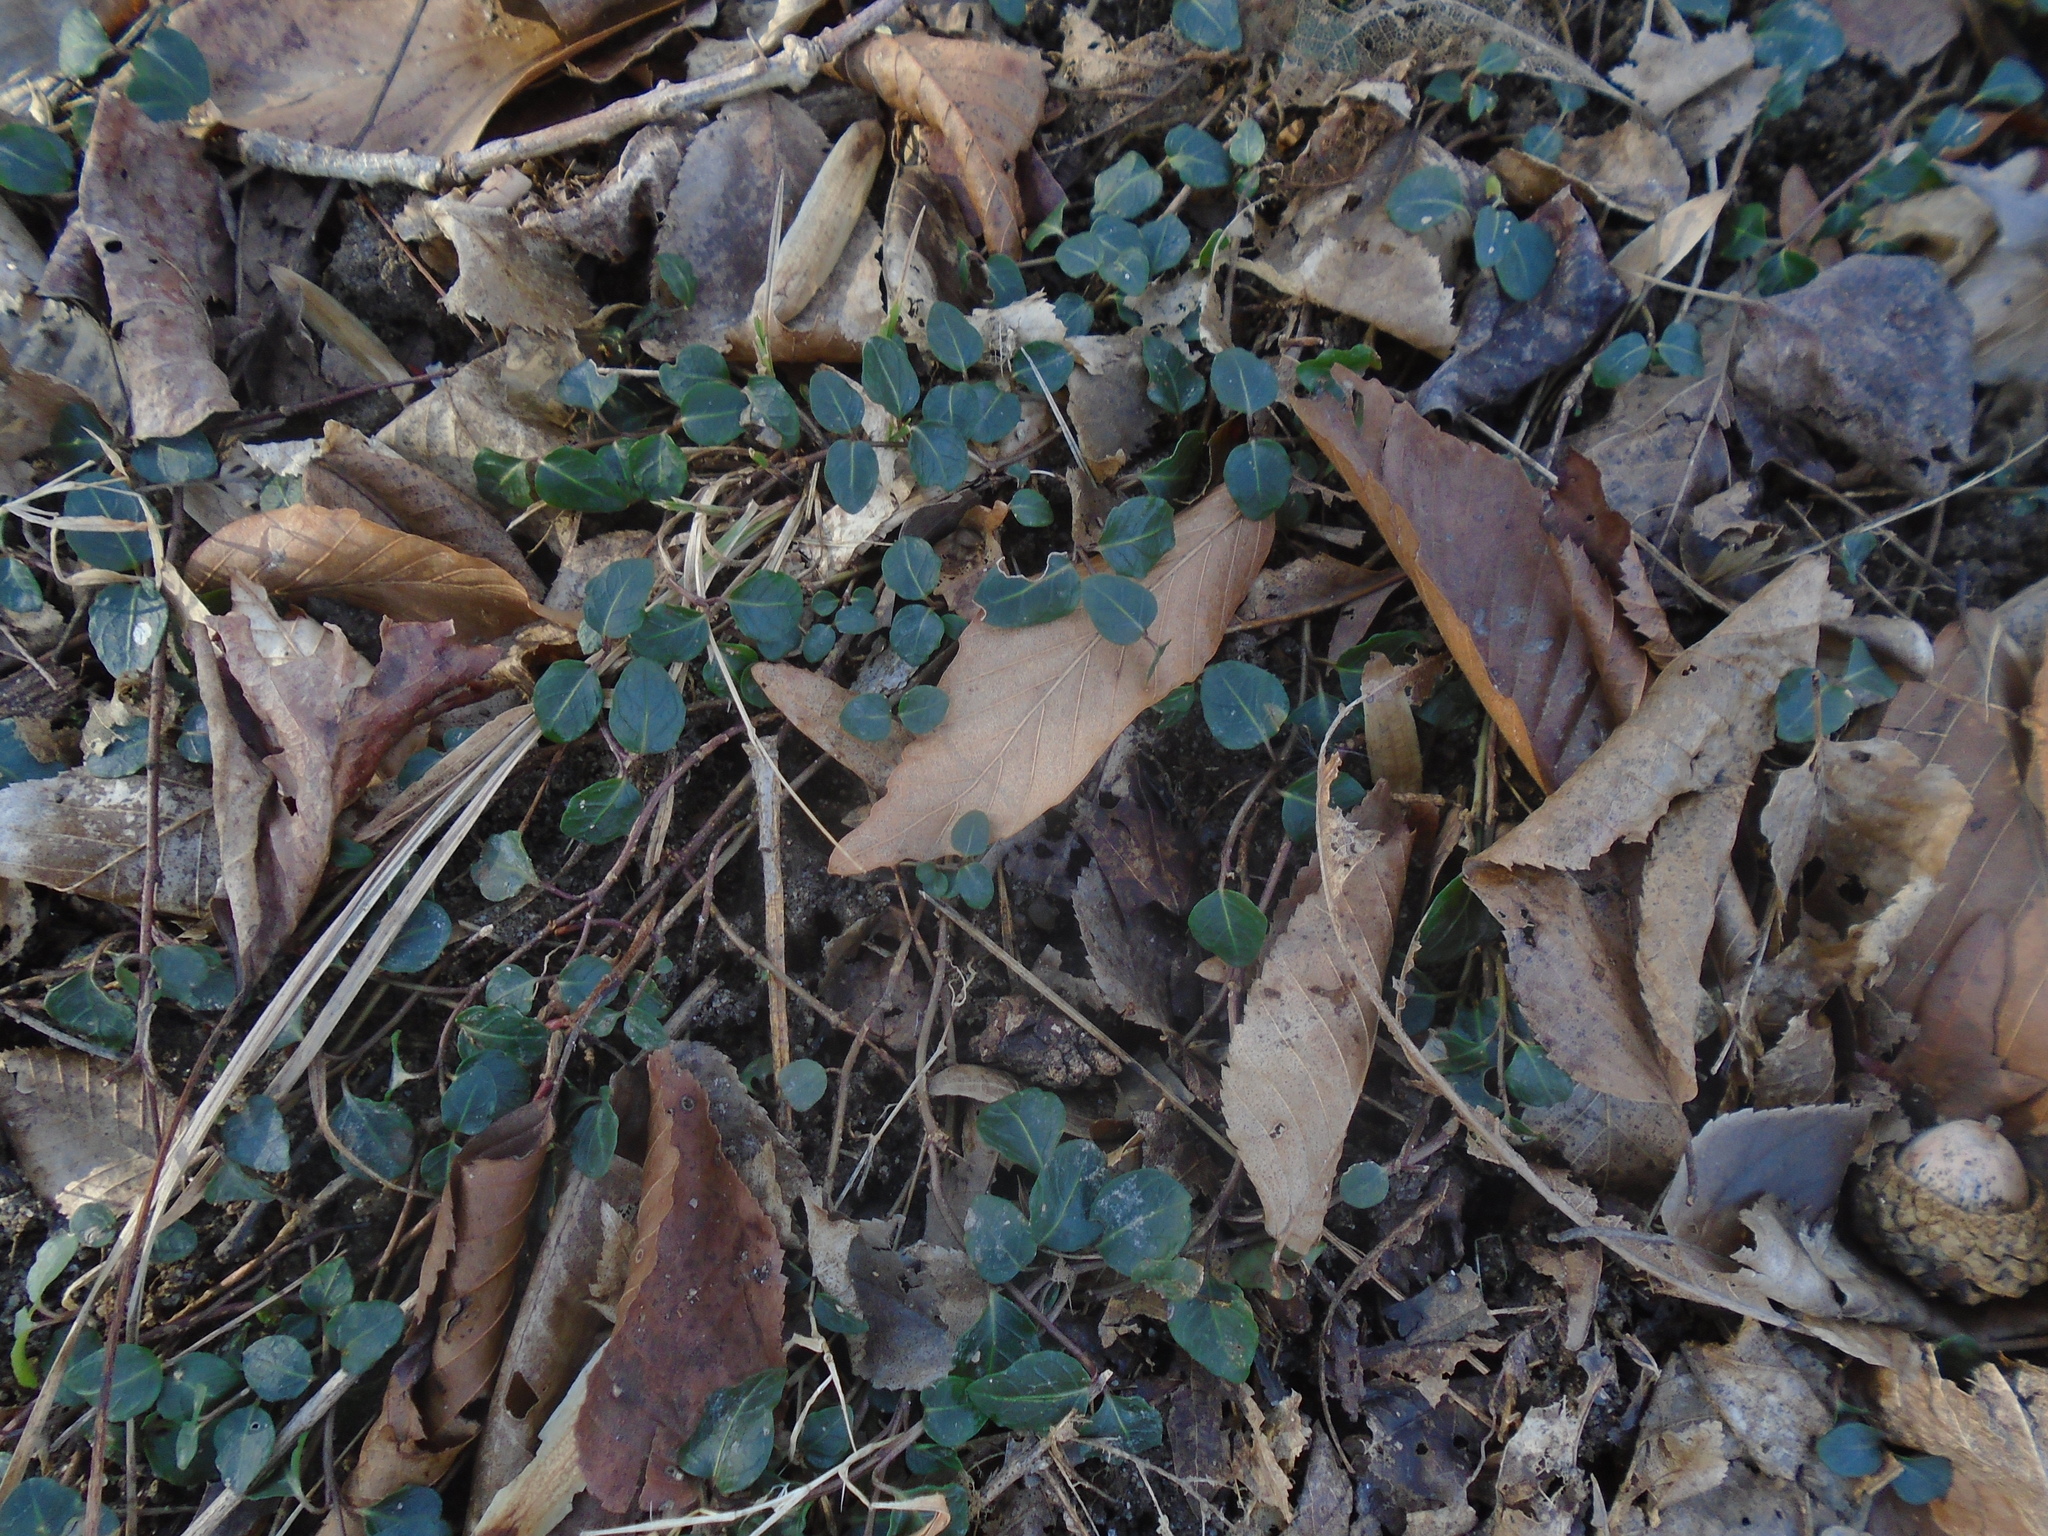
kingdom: Plantae
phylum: Tracheophyta
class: Magnoliopsida
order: Gentianales
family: Rubiaceae
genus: Mitchella
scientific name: Mitchella repens
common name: Partridge-berry
